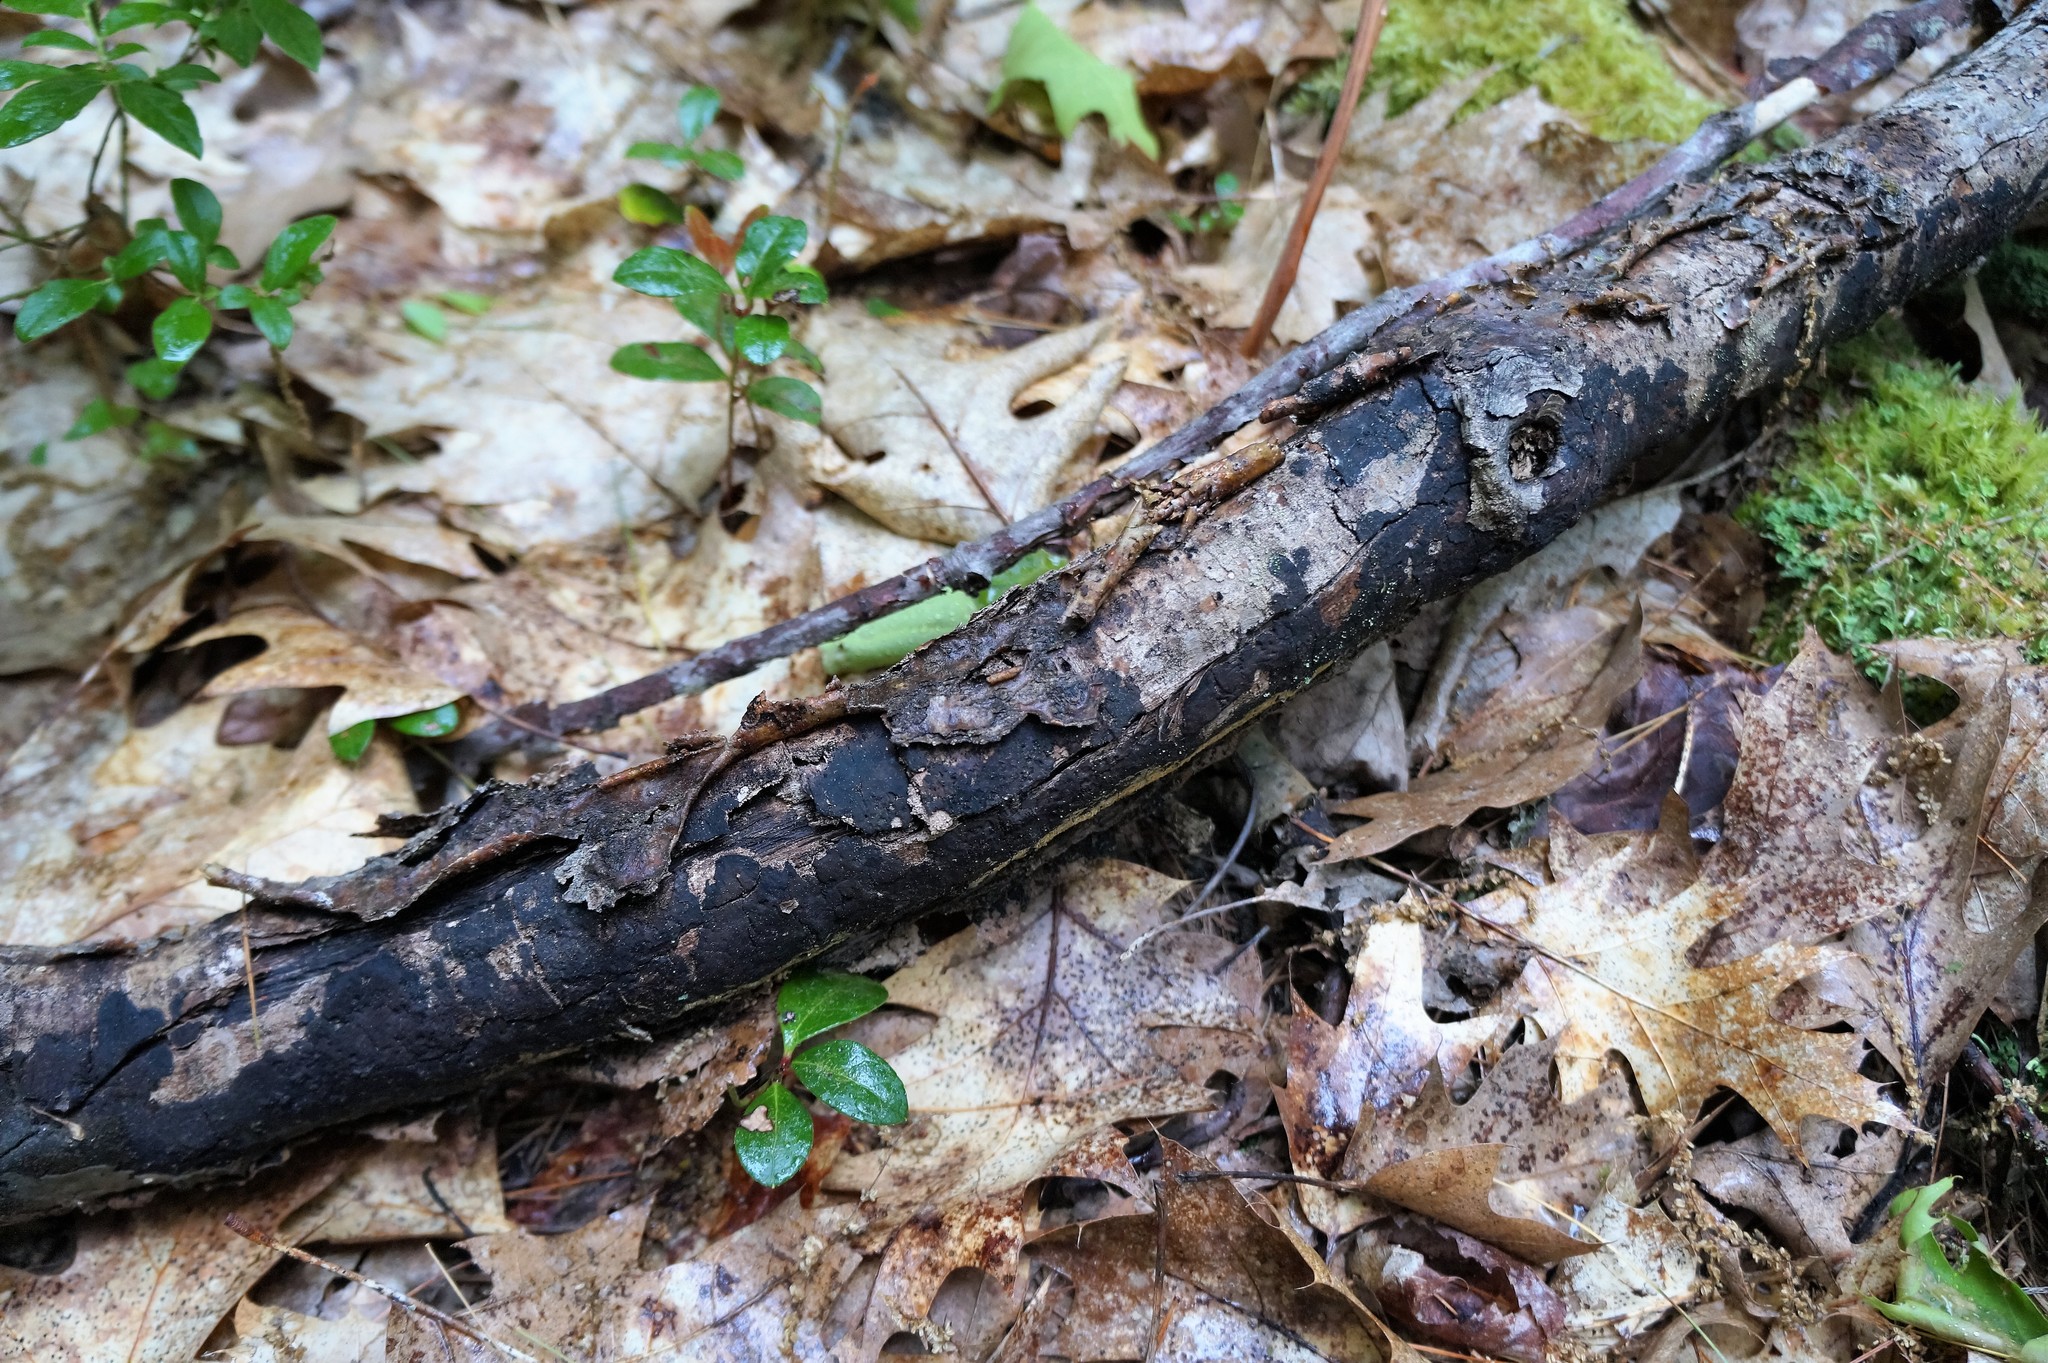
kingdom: Fungi
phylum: Ascomycota
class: Sordariomycetes
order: Xylariales
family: Diatrypaceae
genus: Diatrype
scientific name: Diatrype stigma
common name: Common tarcrust
